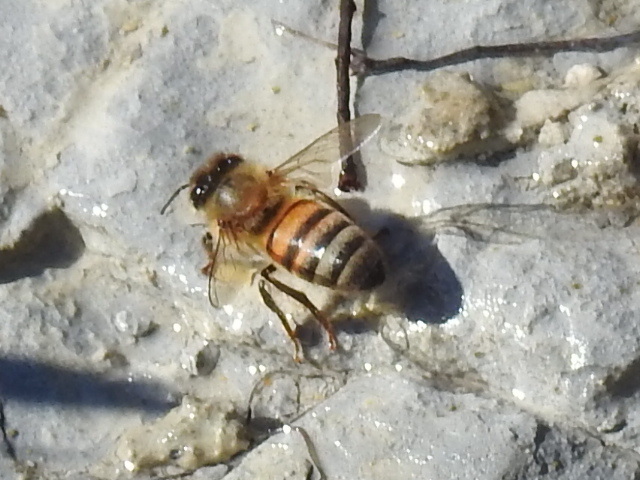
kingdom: Animalia
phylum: Arthropoda
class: Insecta
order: Hymenoptera
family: Apidae
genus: Apis
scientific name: Apis mellifera
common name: Honey bee
